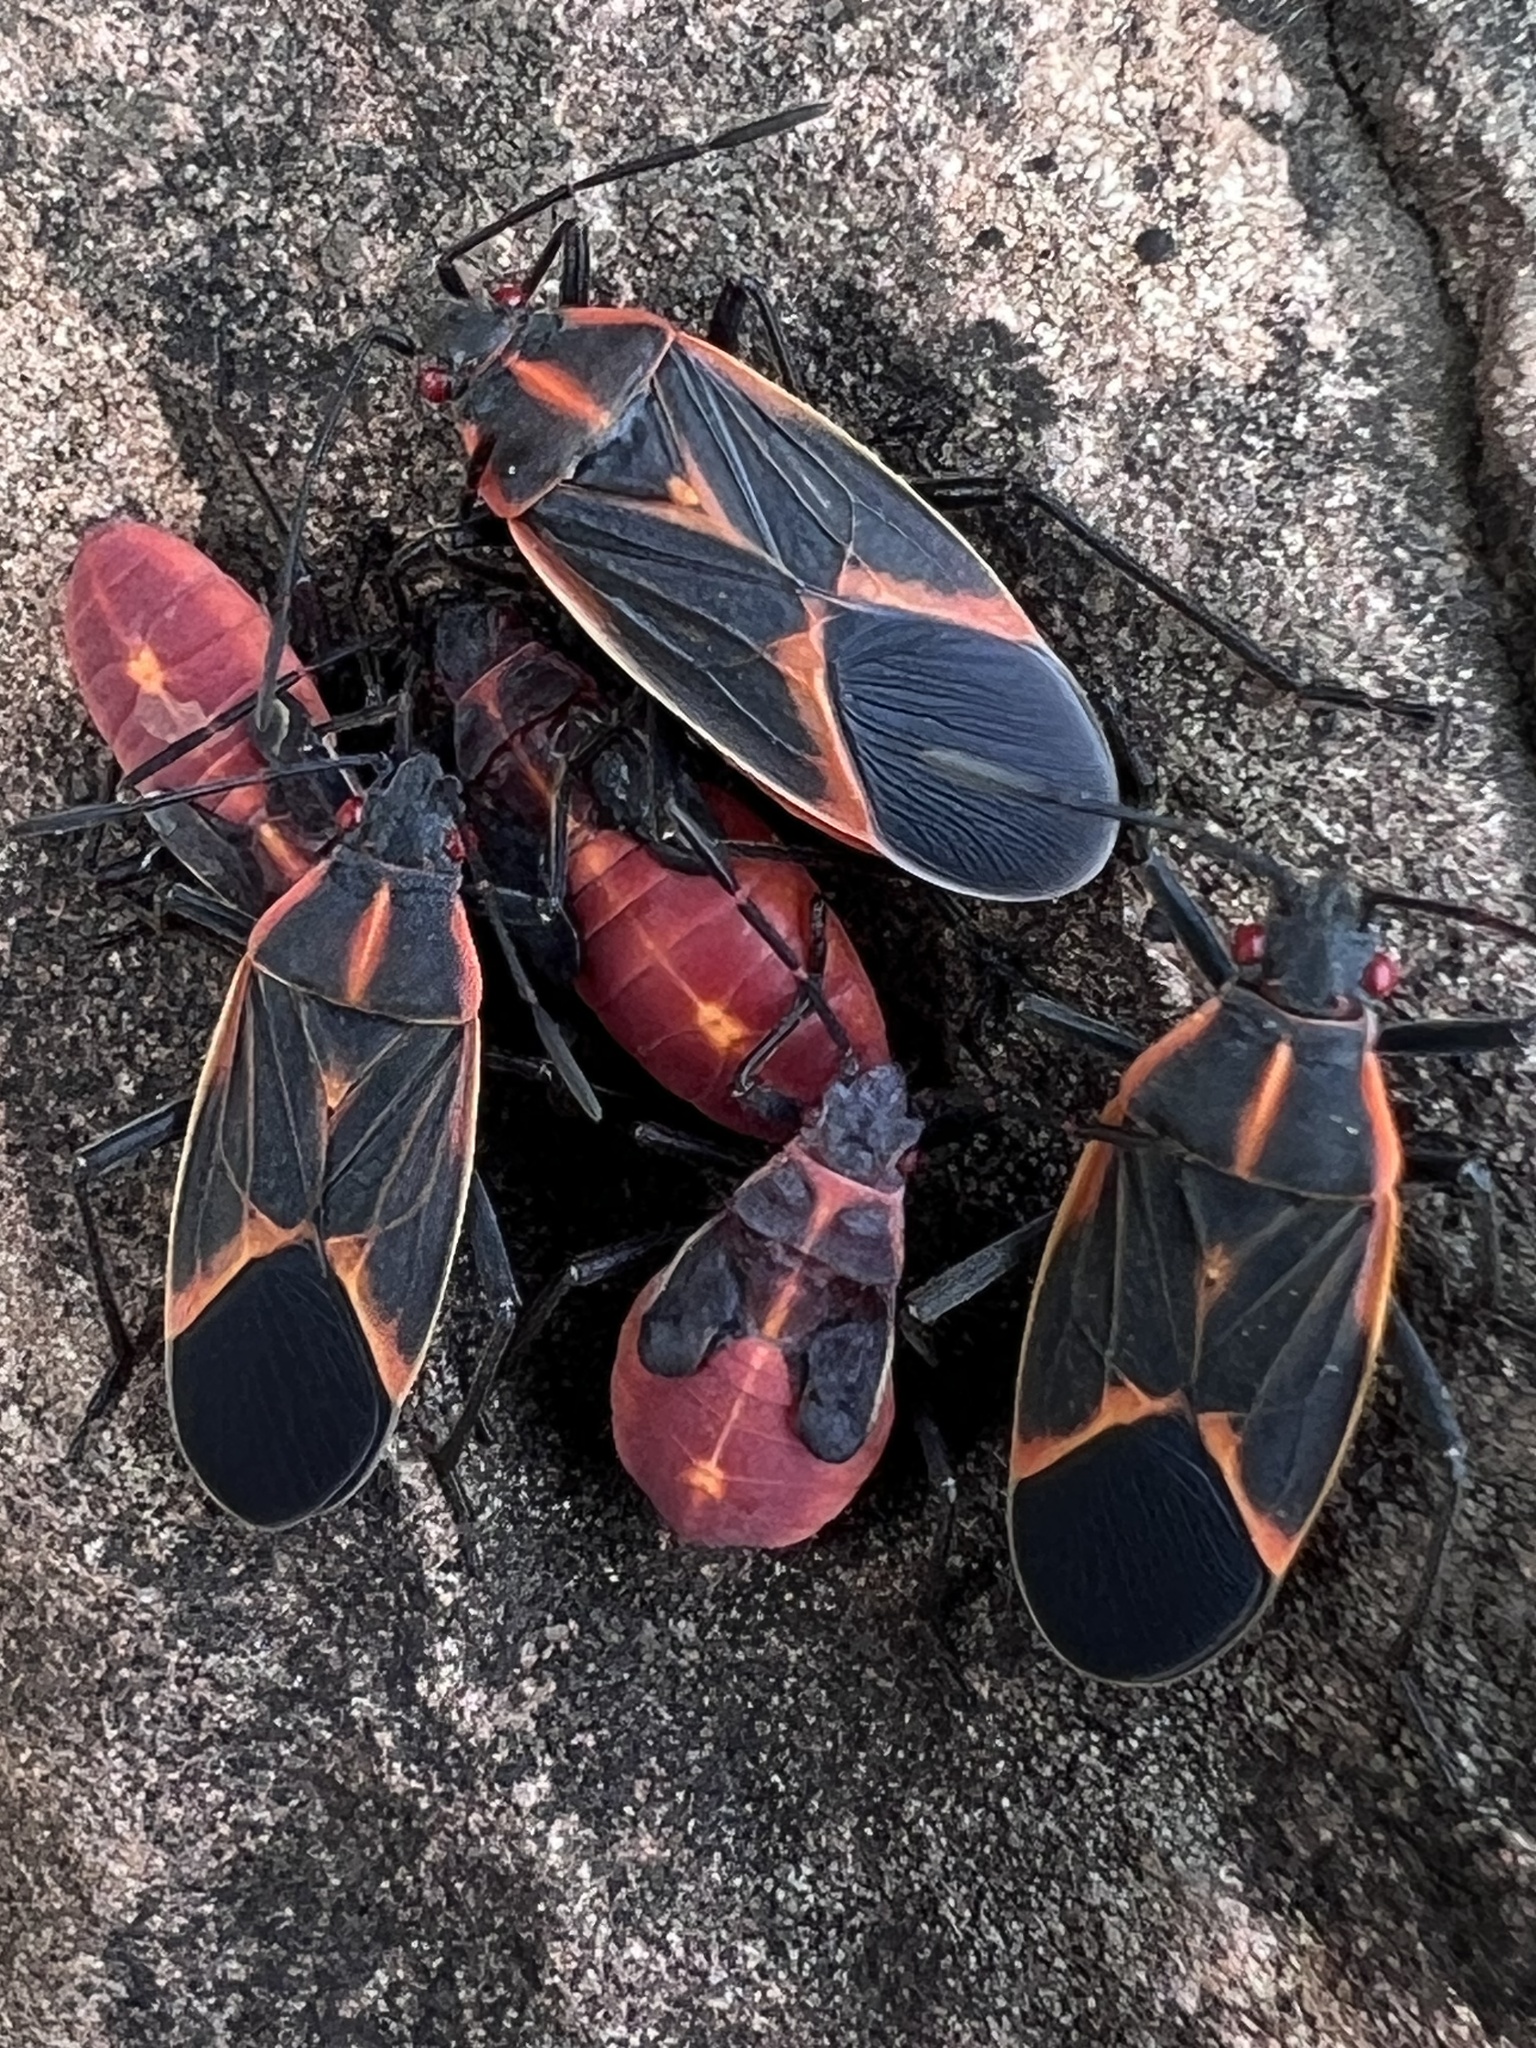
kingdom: Animalia
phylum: Arthropoda
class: Insecta
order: Hemiptera
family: Rhopalidae
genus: Boisea
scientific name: Boisea trivittata
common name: Boxelder bug
